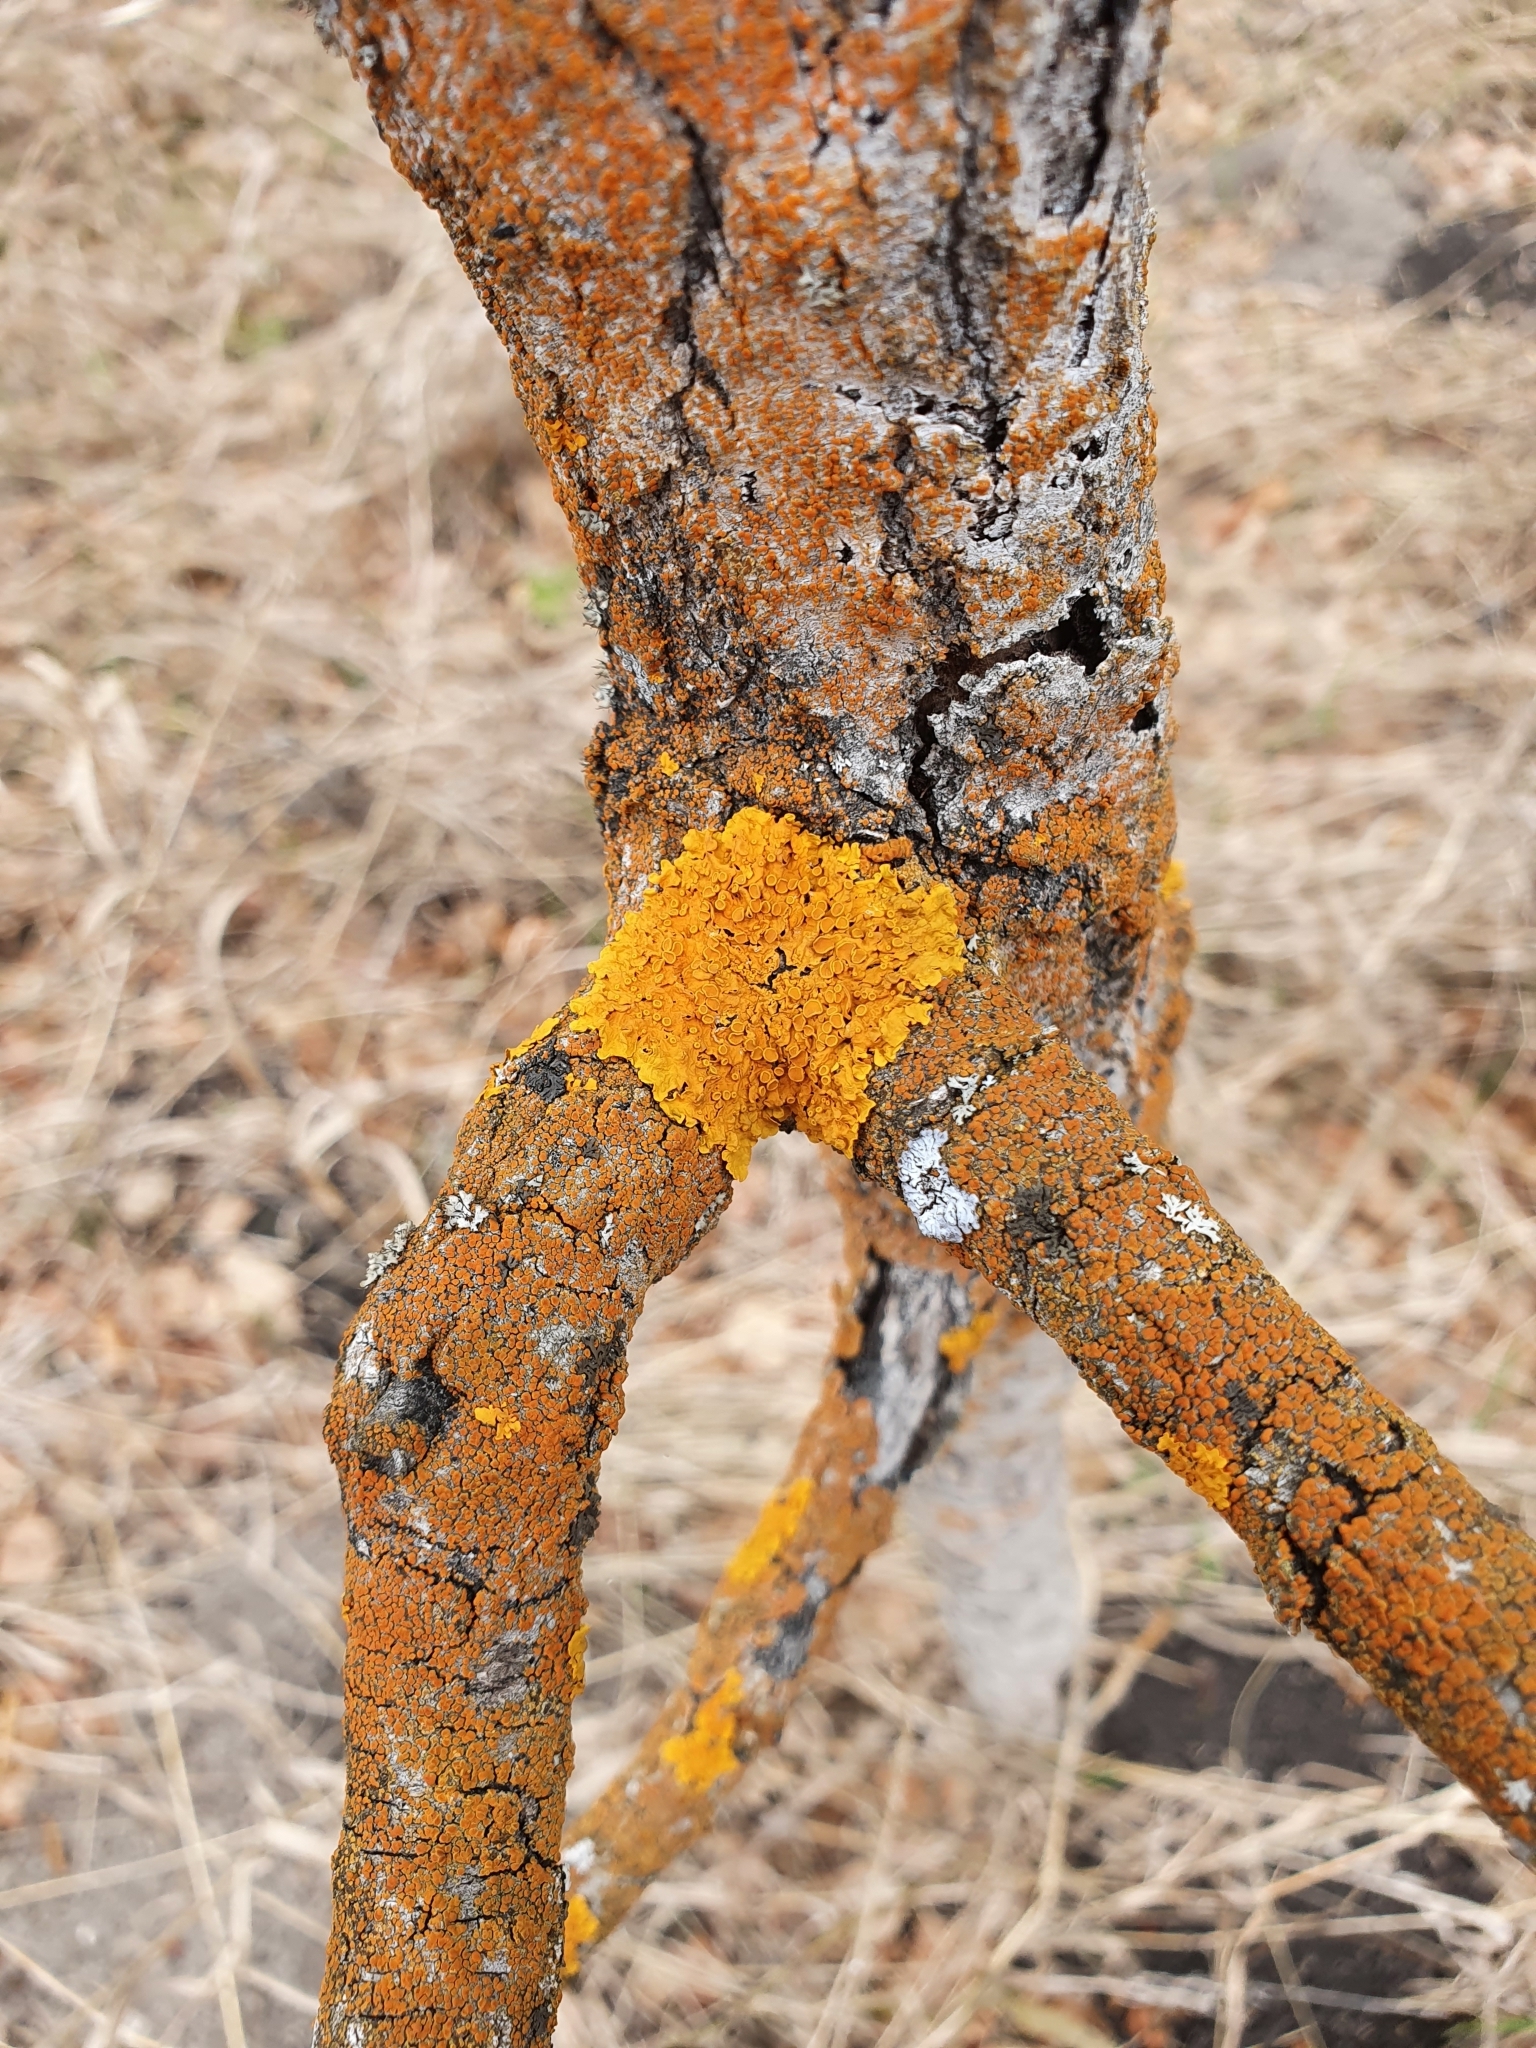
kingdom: Fungi
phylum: Ascomycota
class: Lecanoromycetes
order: Teloschistales
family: Teloschistaceae
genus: Xanthoria
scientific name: Xanthoria parietina
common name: Common orange lichen
